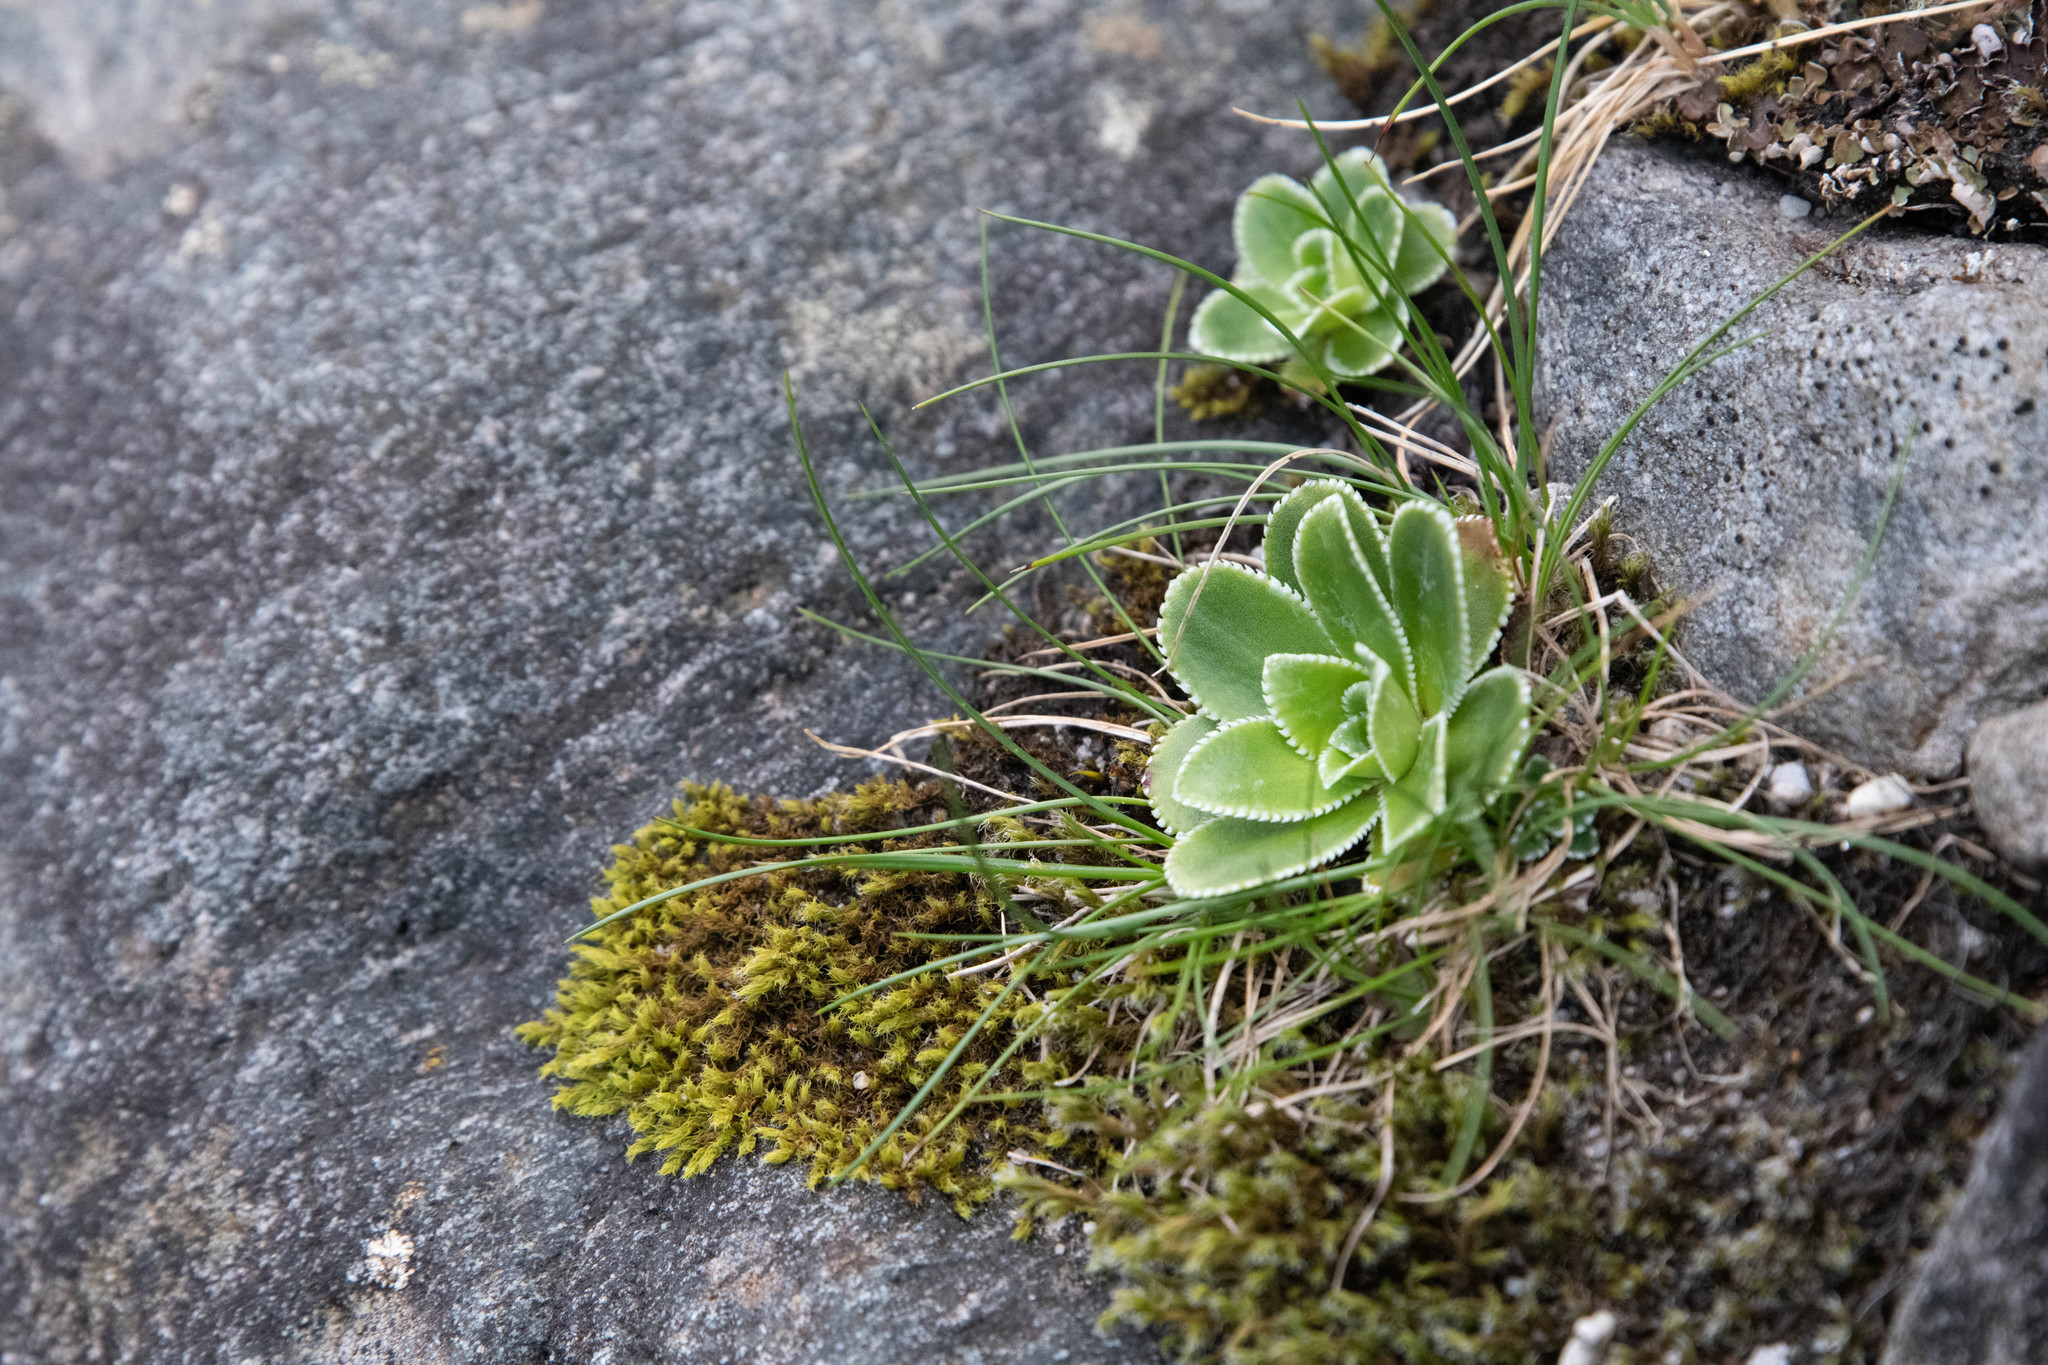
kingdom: Plantae
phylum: Tracheophyta
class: Magnoliopsida
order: Saxifragales
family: Saxifragaceae
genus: Saxifraga
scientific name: Saxifraga cotyledon
